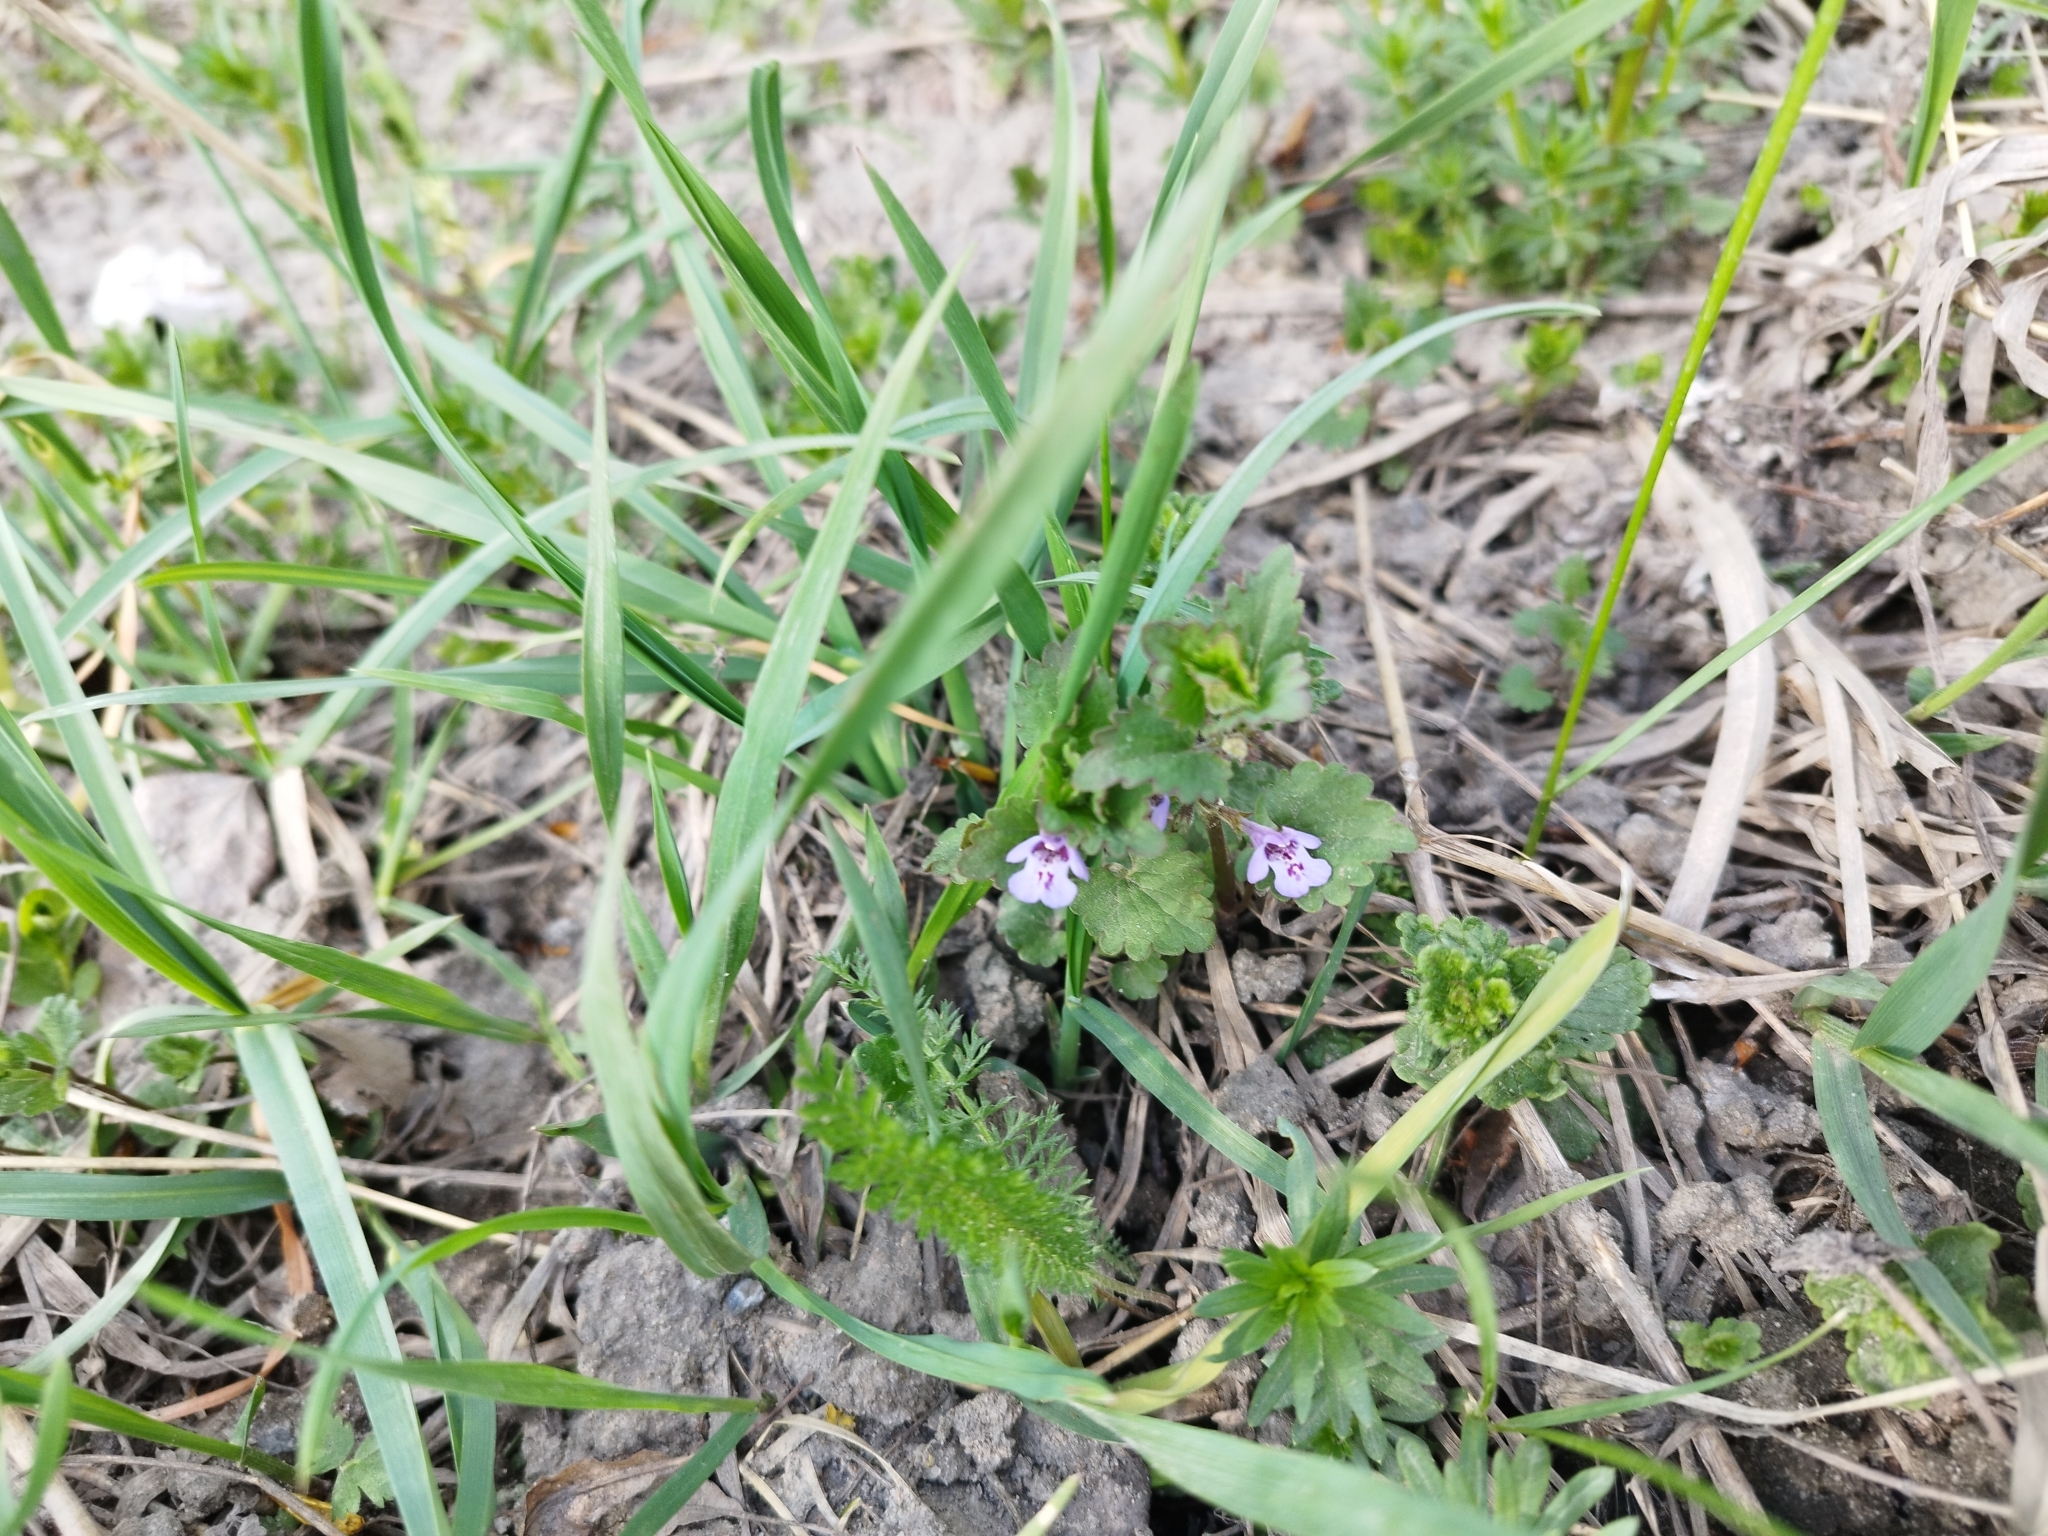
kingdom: Plantae
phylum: Tracheophyta
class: Magnoliopsida
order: Lamiales
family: Lamiaceae
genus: Glechoma
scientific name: Glechoma hederacea
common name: Ground ivy
